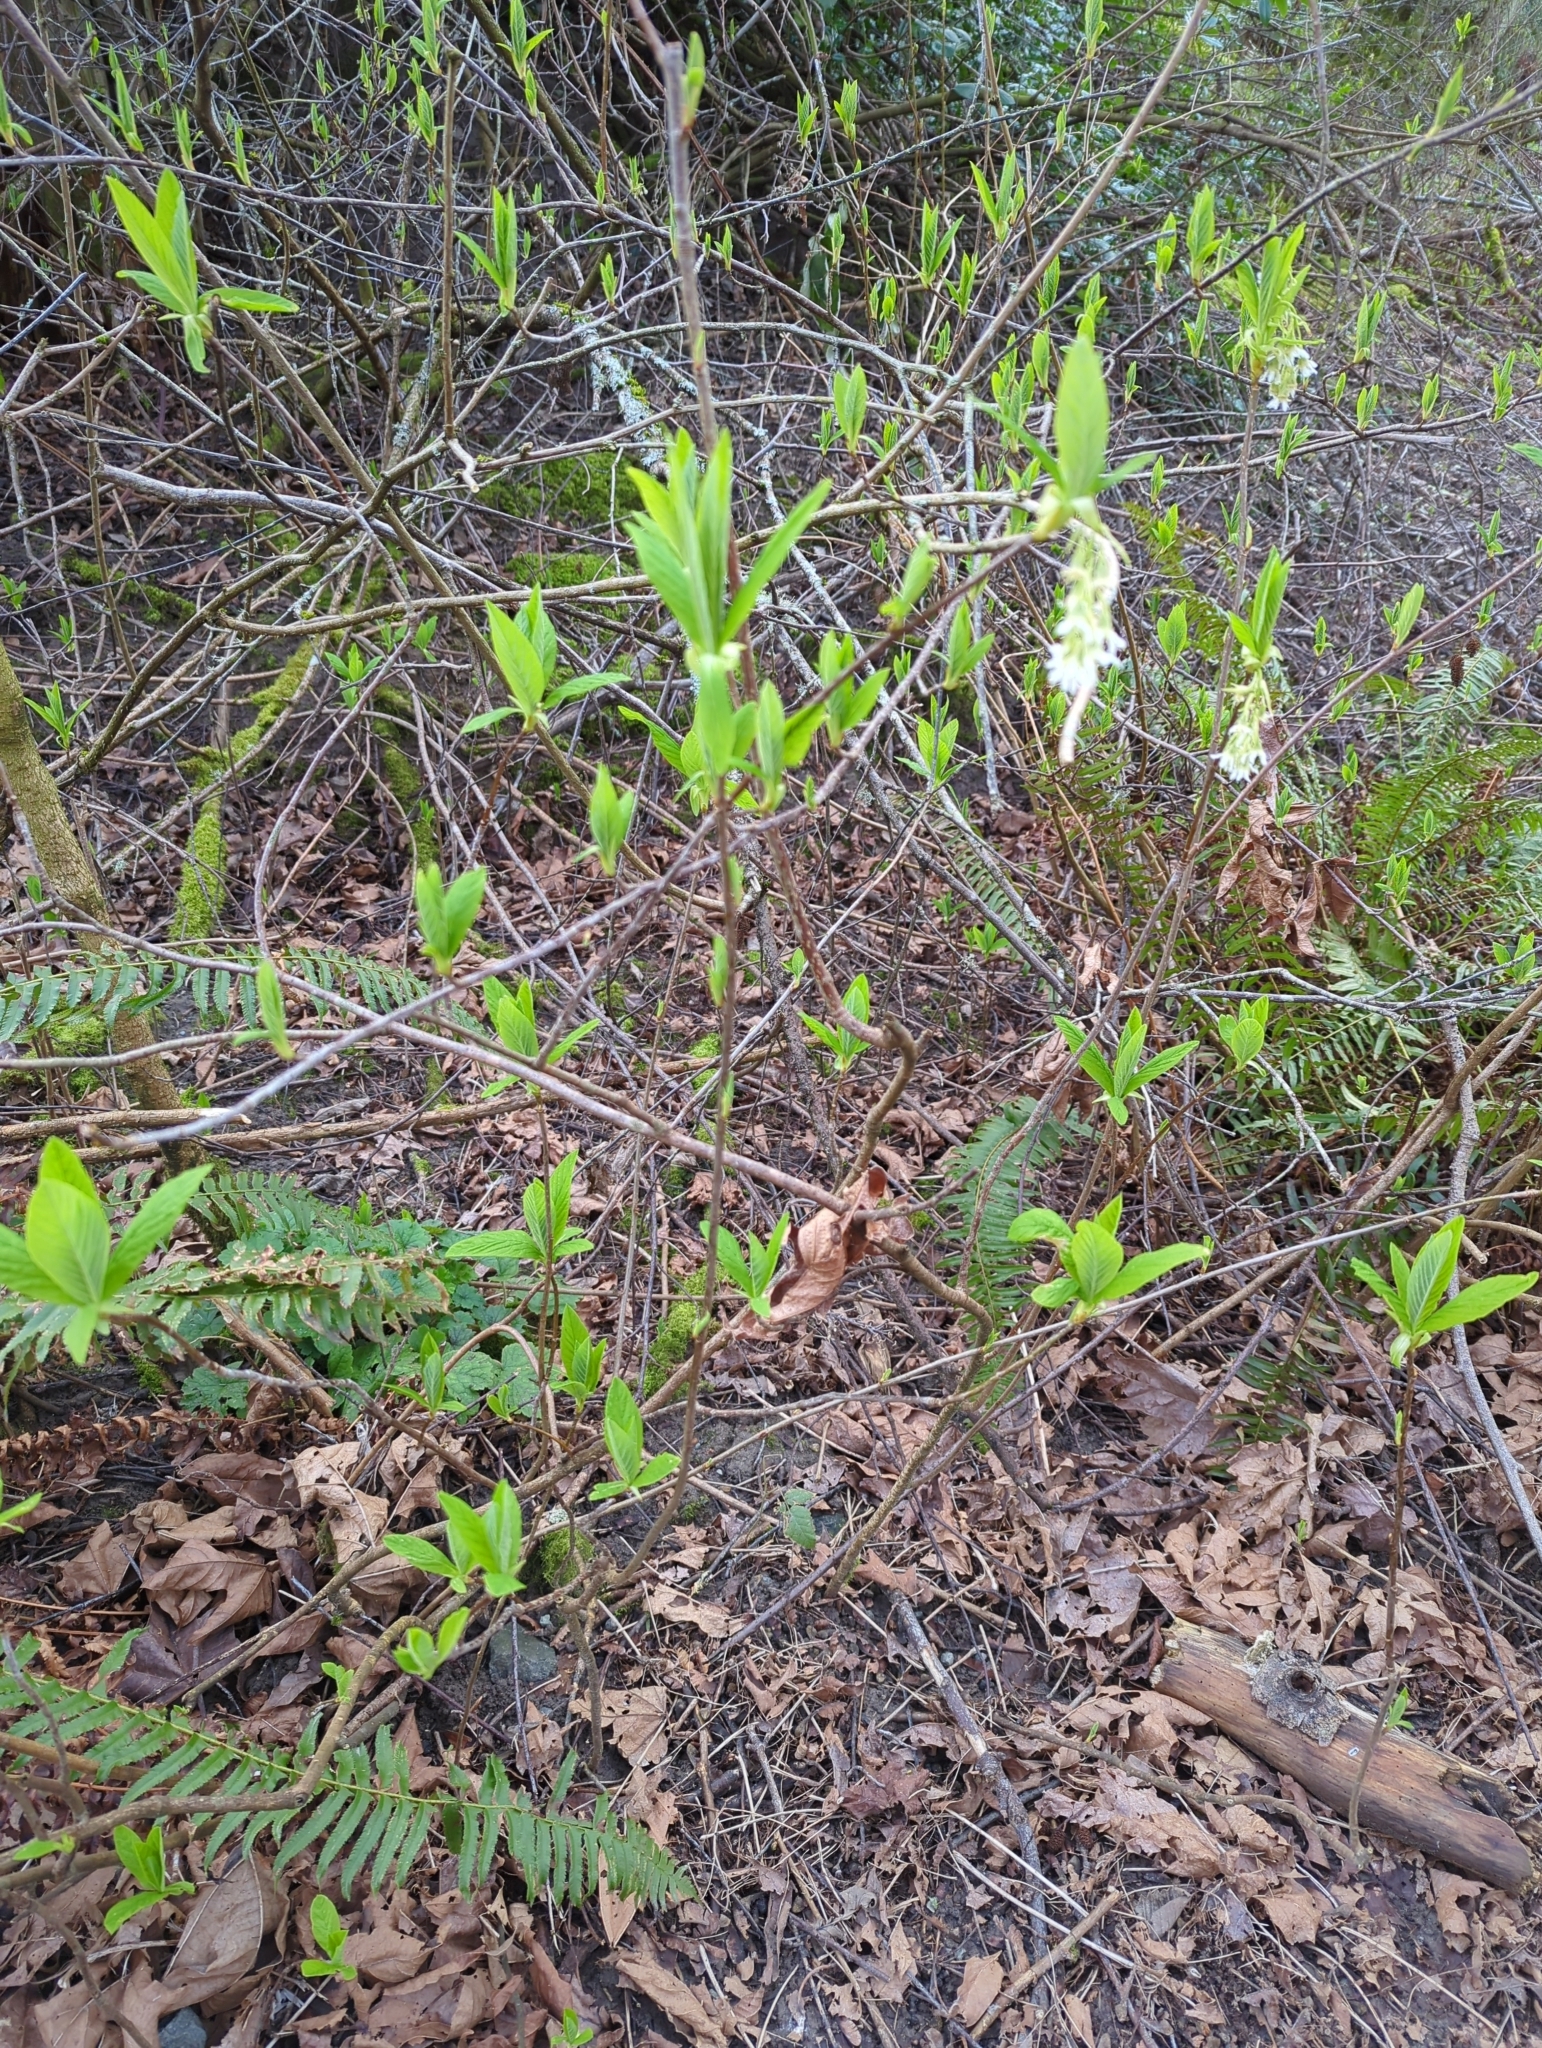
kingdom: Plantae
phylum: Tracheophyta
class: Magnoliopsida
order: Rosales
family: Rosaceae
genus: Oemleria
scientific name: Oemleria cerasiformis
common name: Osoberry
